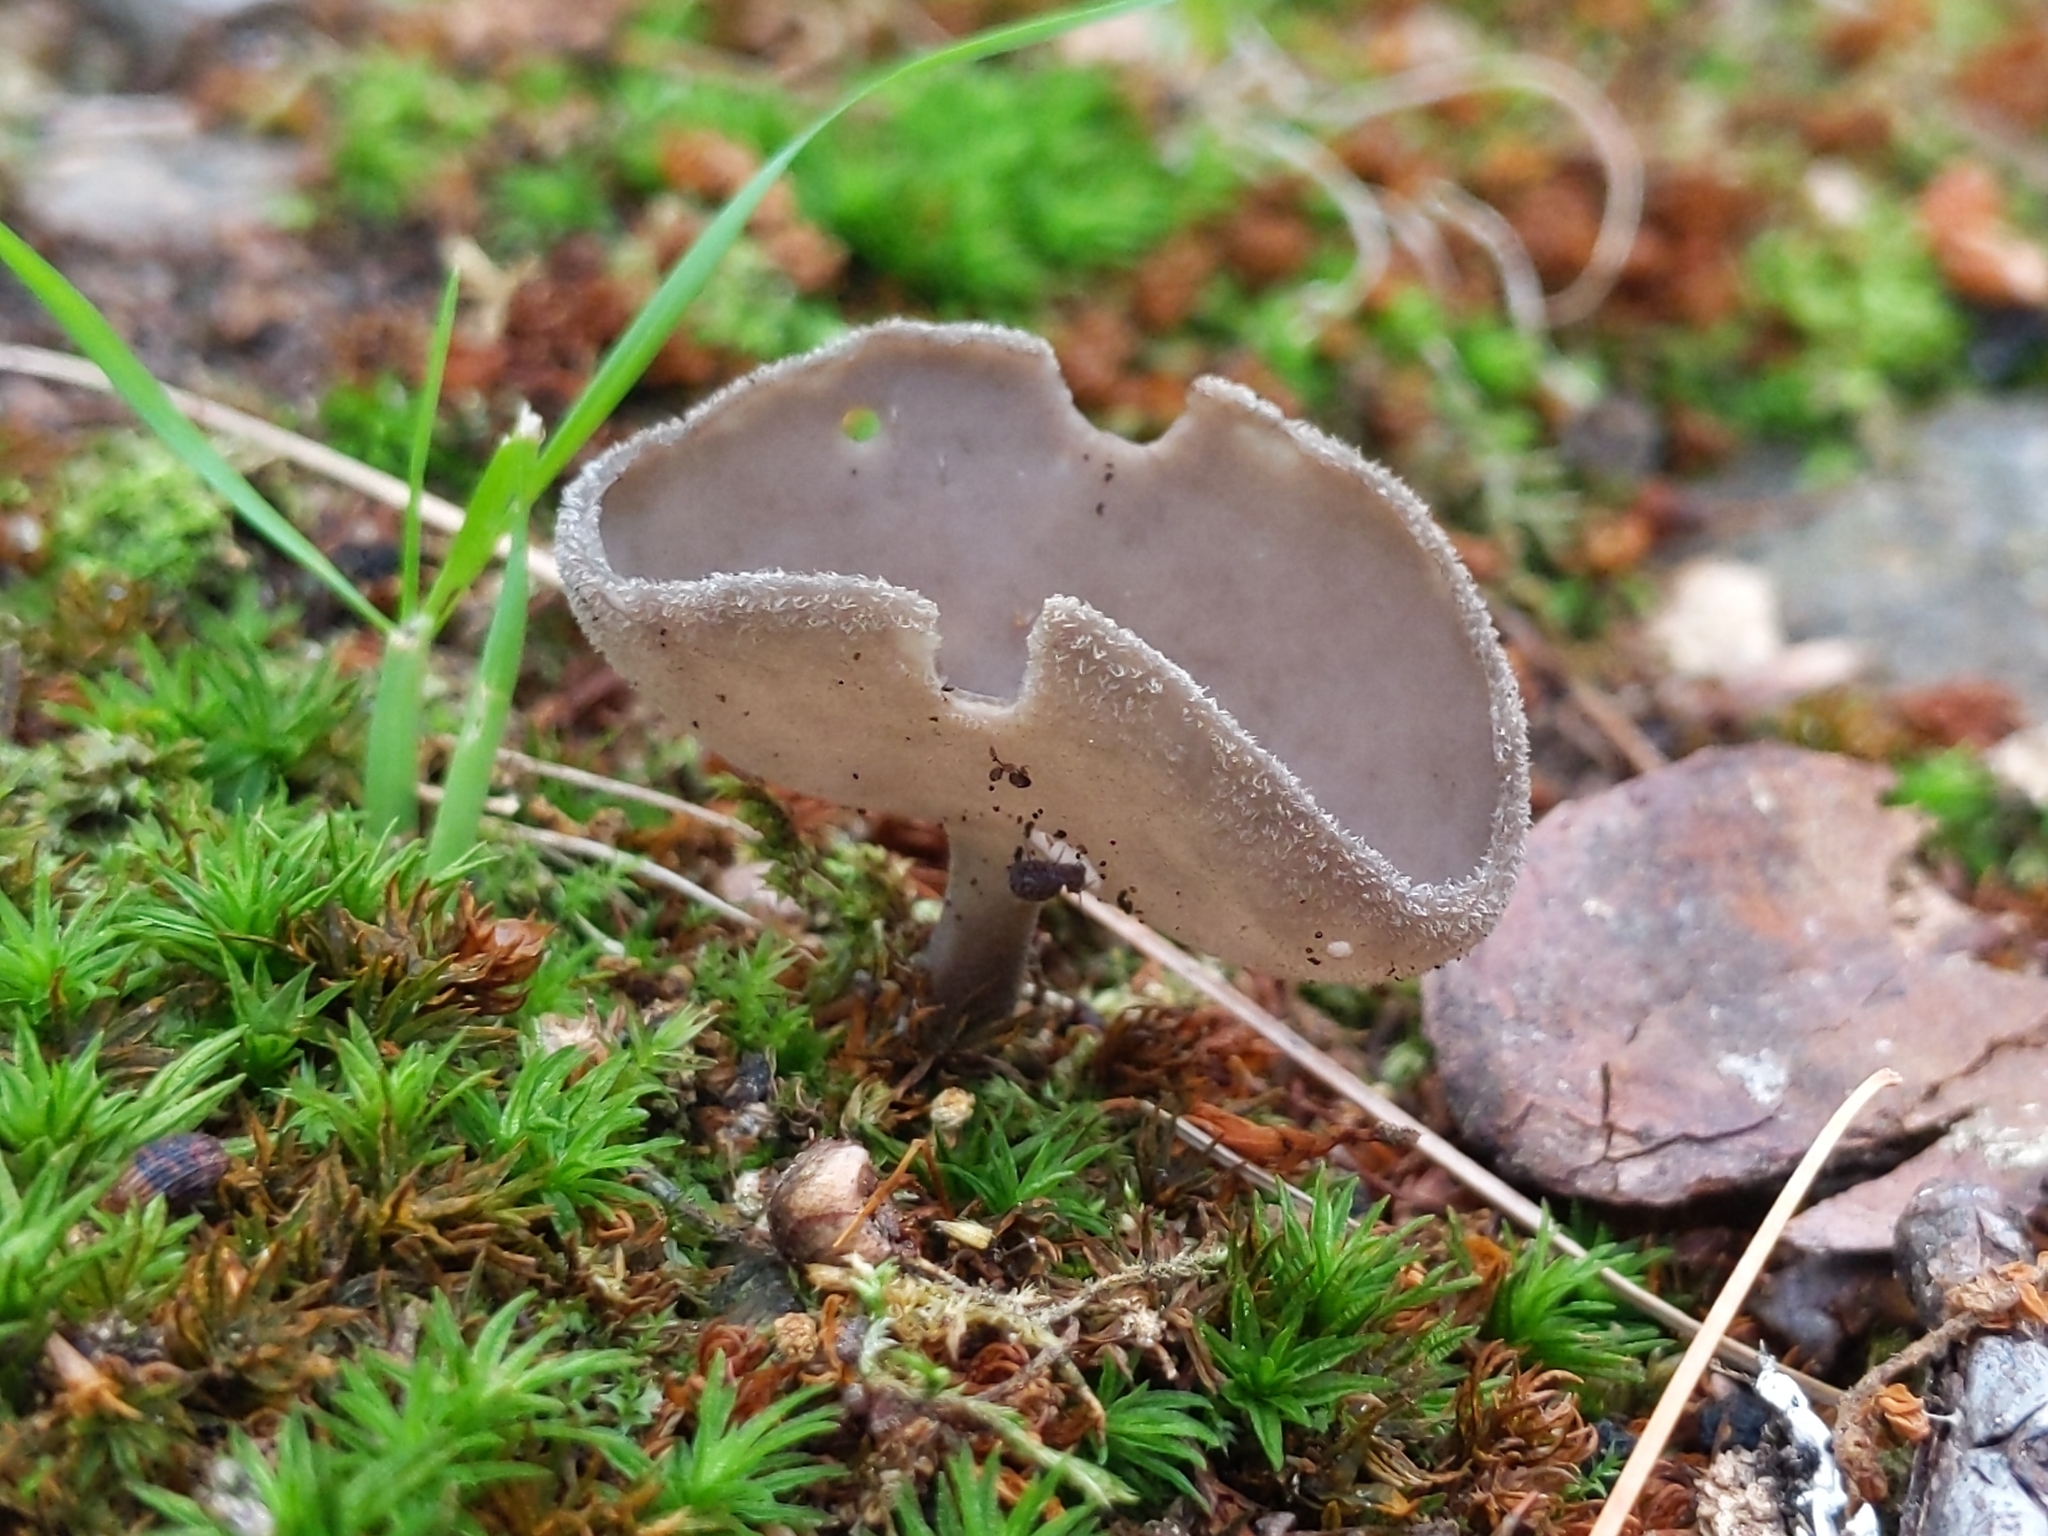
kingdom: Fungi
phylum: Ascomycota
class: Pezizomycetes
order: Pezizales
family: Helvellaceae
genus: Helvella
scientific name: Helvella macropus
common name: Felt saddle
